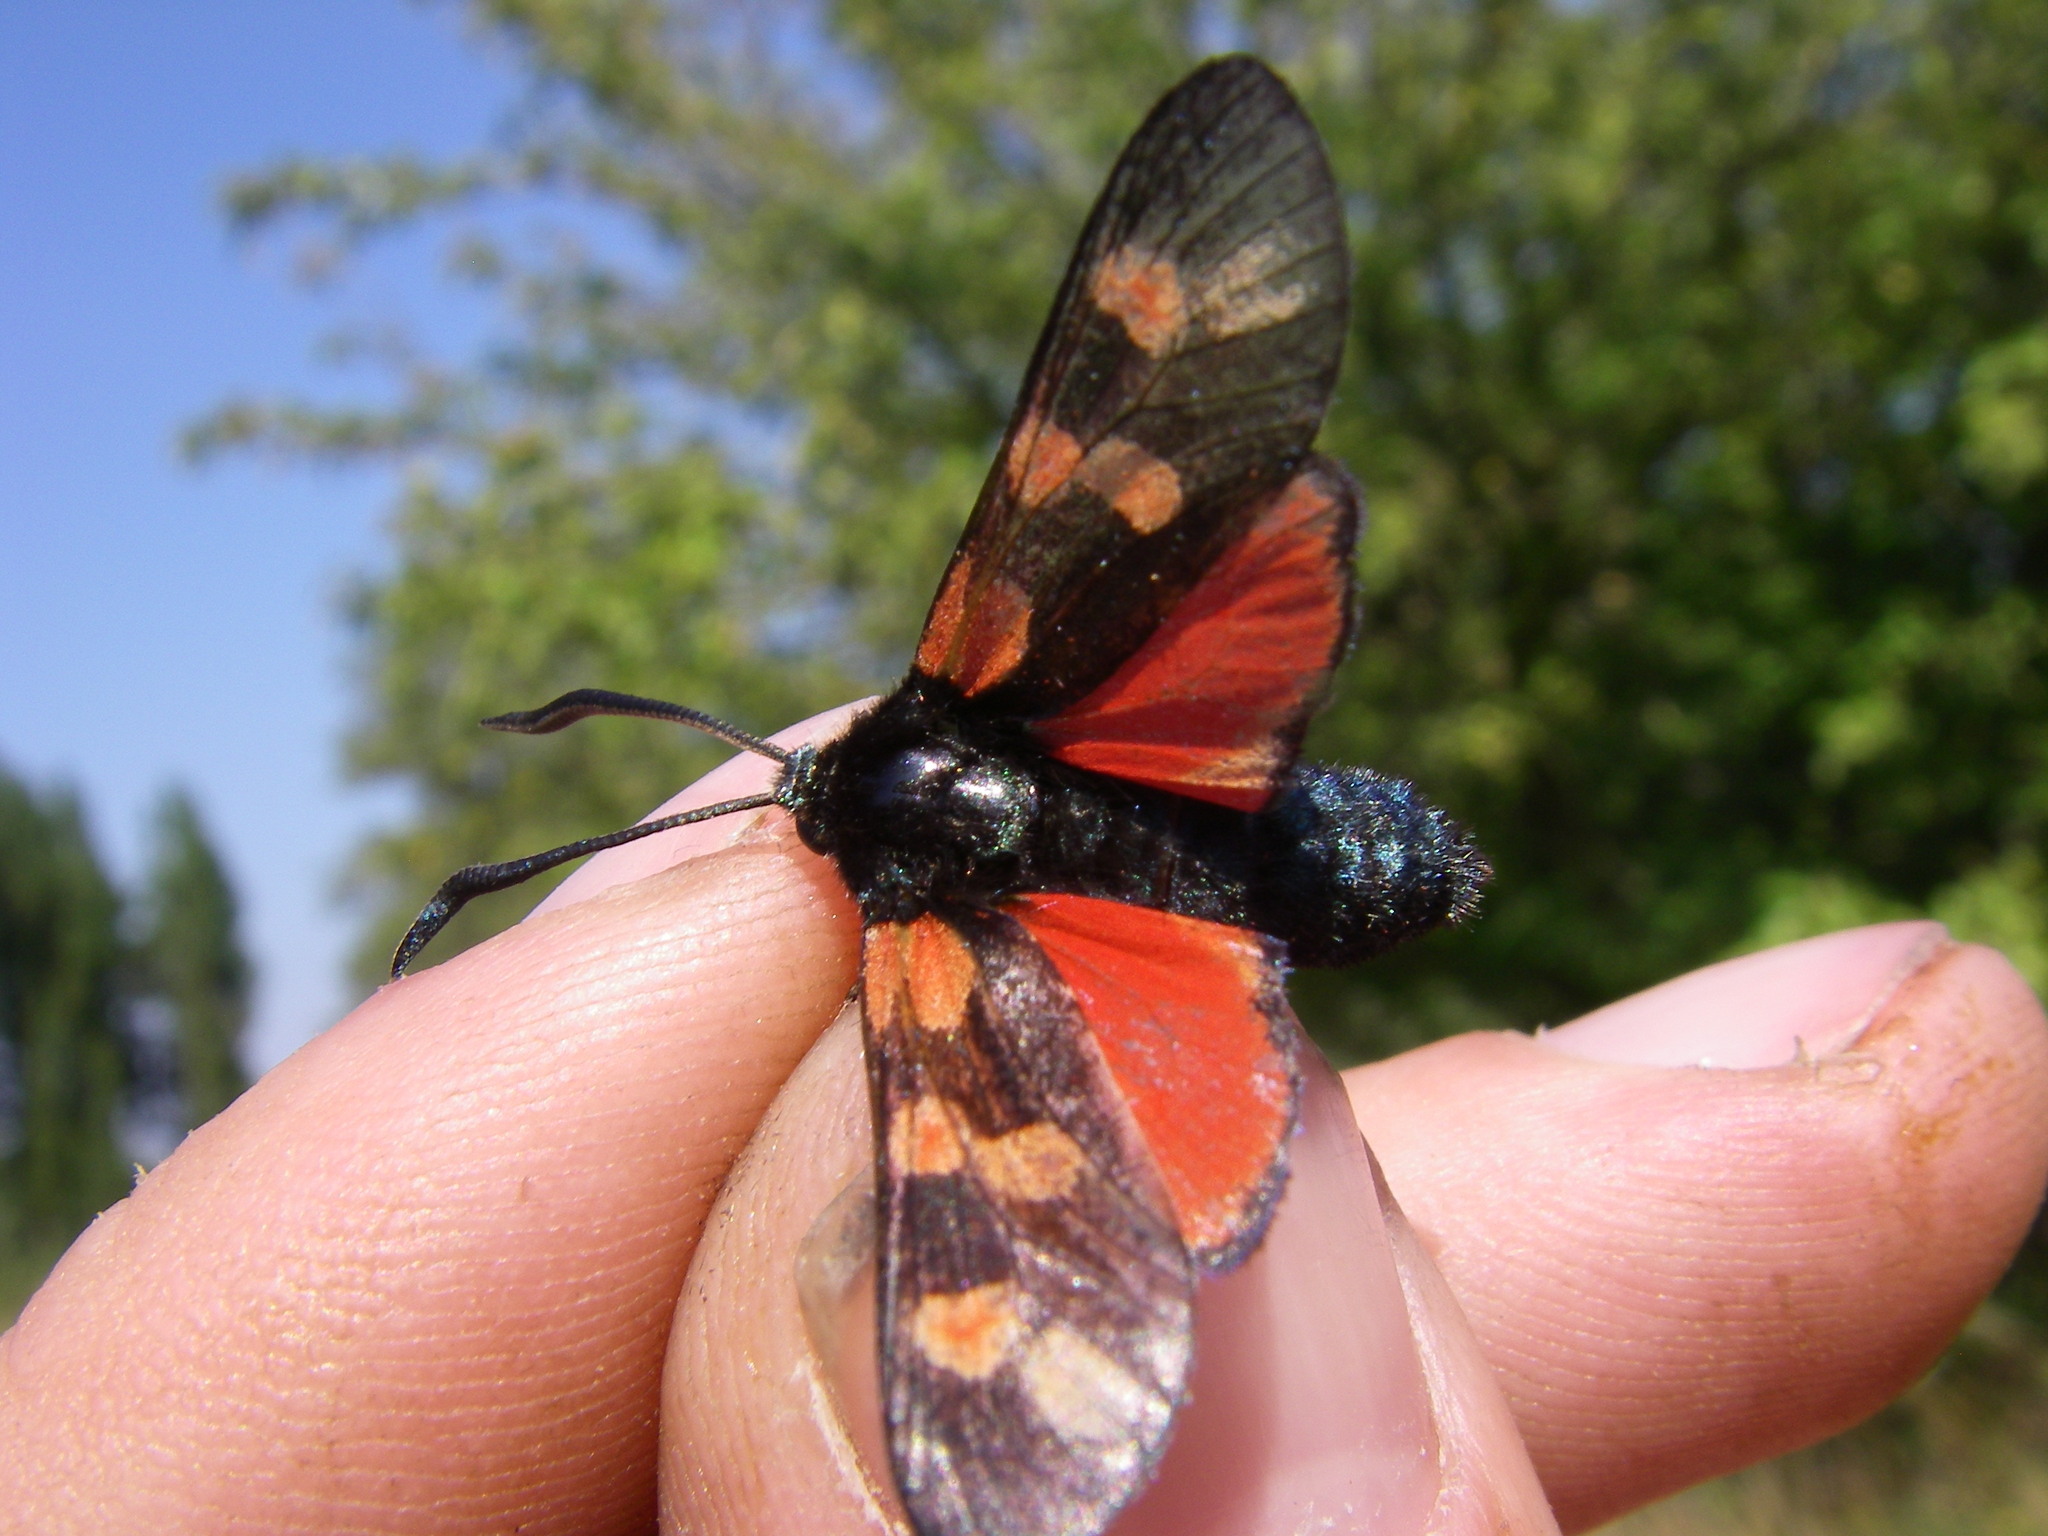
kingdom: Animalia
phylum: Arthropoda
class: Insecta
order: Lepidoptera
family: Zygaenidae
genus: Zygaena
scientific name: Zygaena filipendulae
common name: Six-spot burnet
